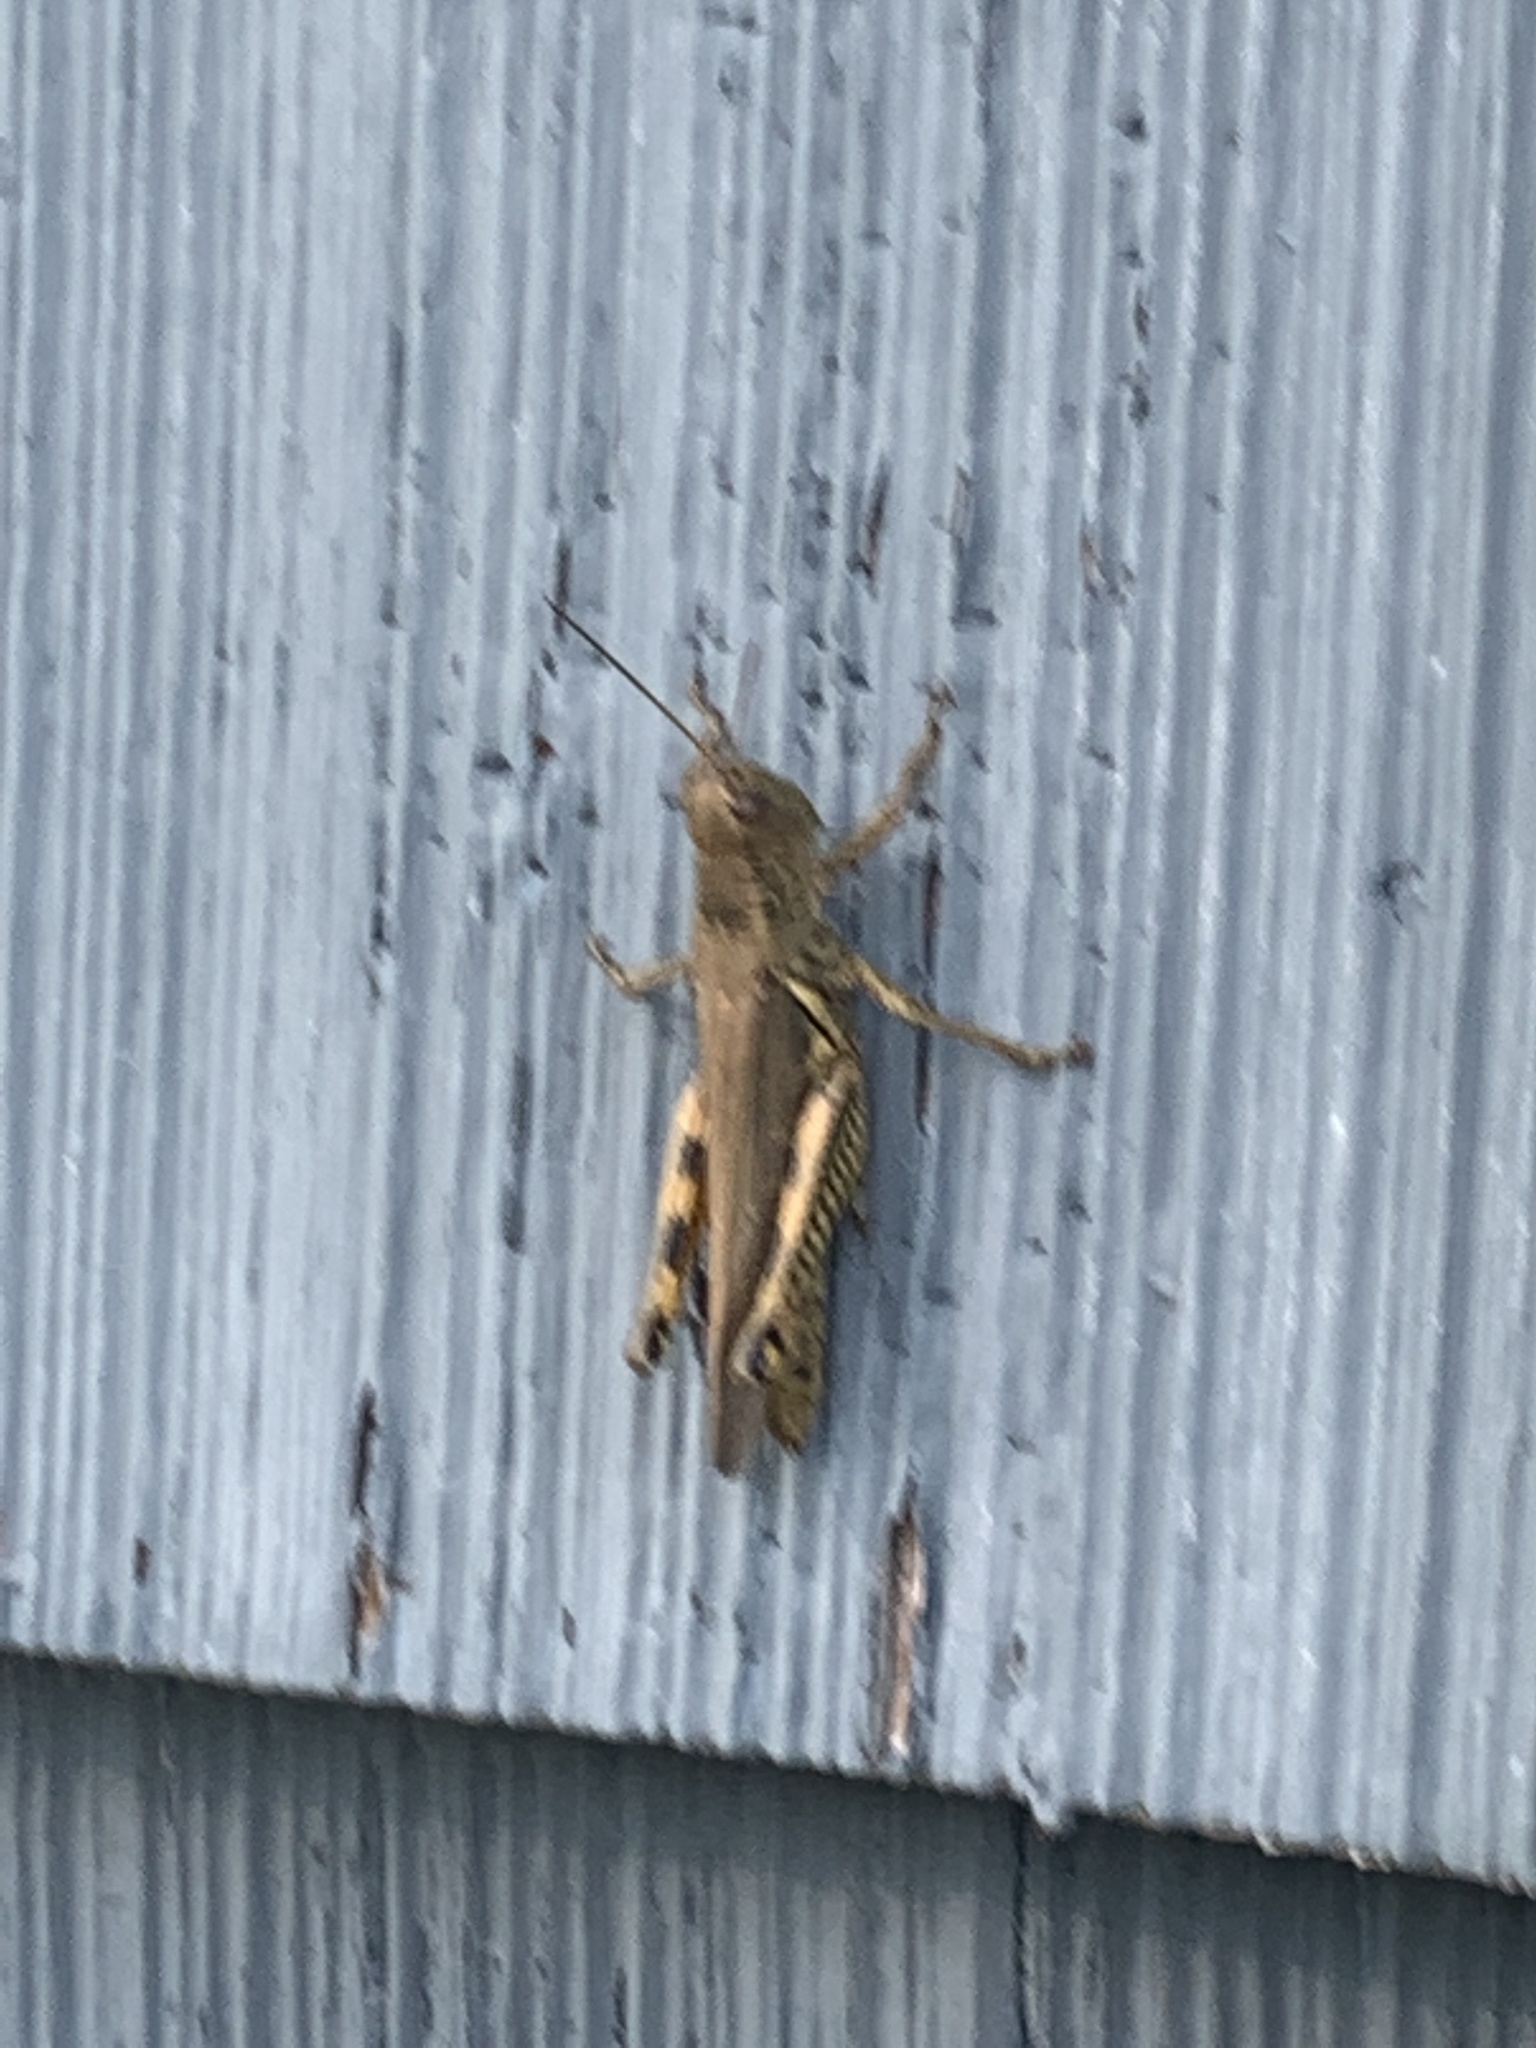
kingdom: Animalia
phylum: Arthropoda
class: Insecta
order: Orthoptera
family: Acrididae
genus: Melanoplus
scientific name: Melanoplus differentialis
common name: Differential grasshopper
